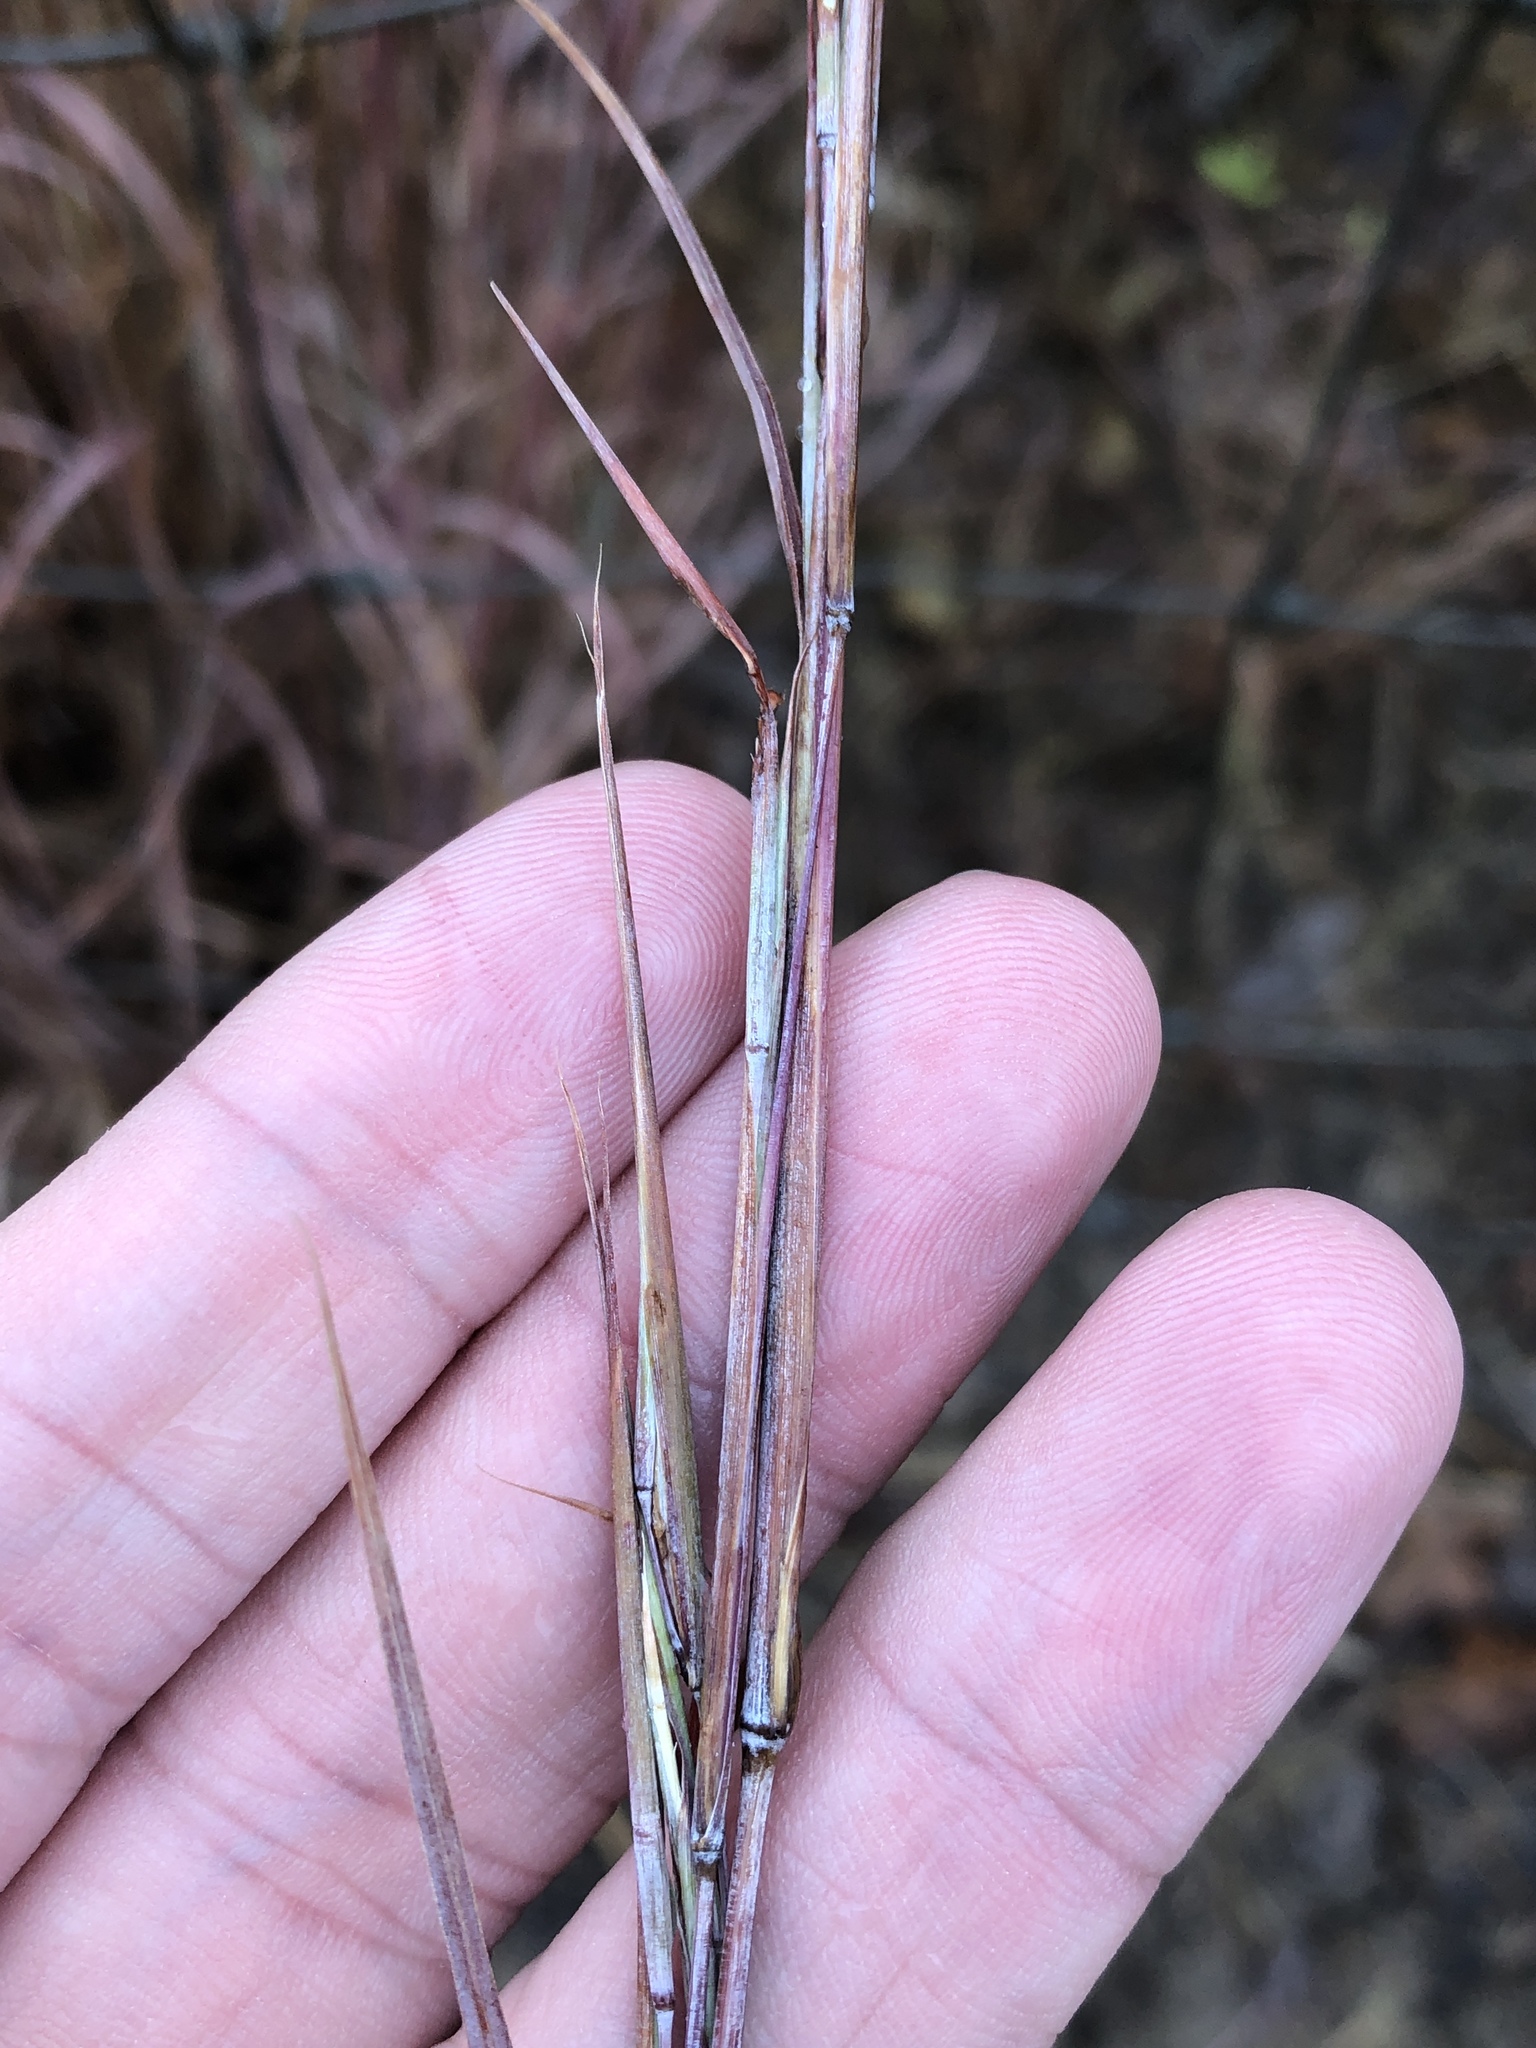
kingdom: Plantae
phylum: Tracheophyta
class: Liliopsida
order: Poales
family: Poaceae
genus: Schizachyrium
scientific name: Schizachyrium scoparium
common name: Little bluestem
